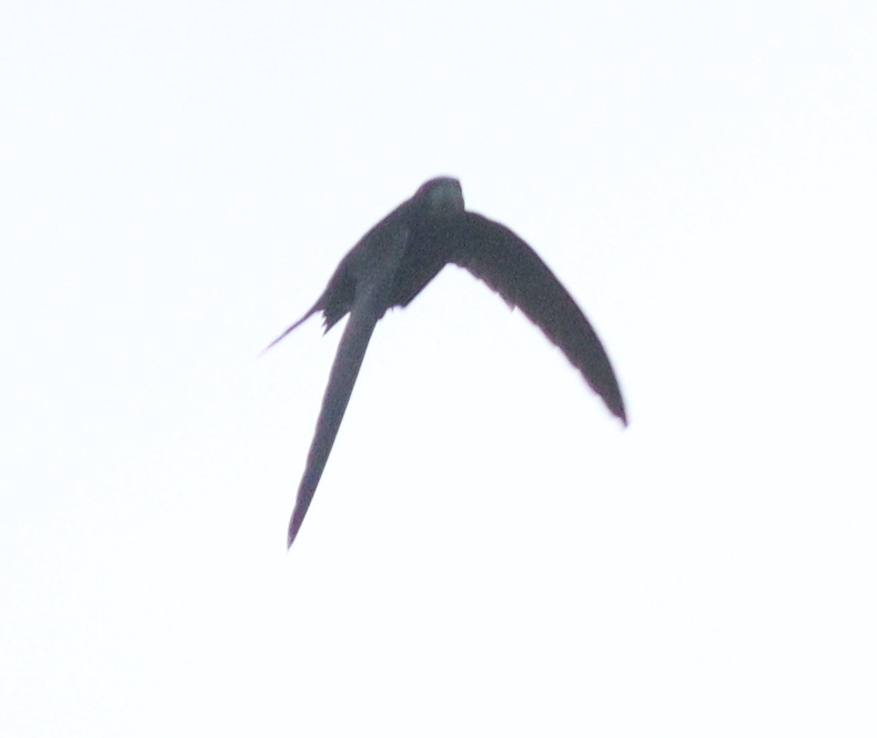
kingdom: Animalia
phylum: Chordata
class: Aves
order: Apodiformes
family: Apodidae
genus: Apus
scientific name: Apus apus
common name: Common swift
